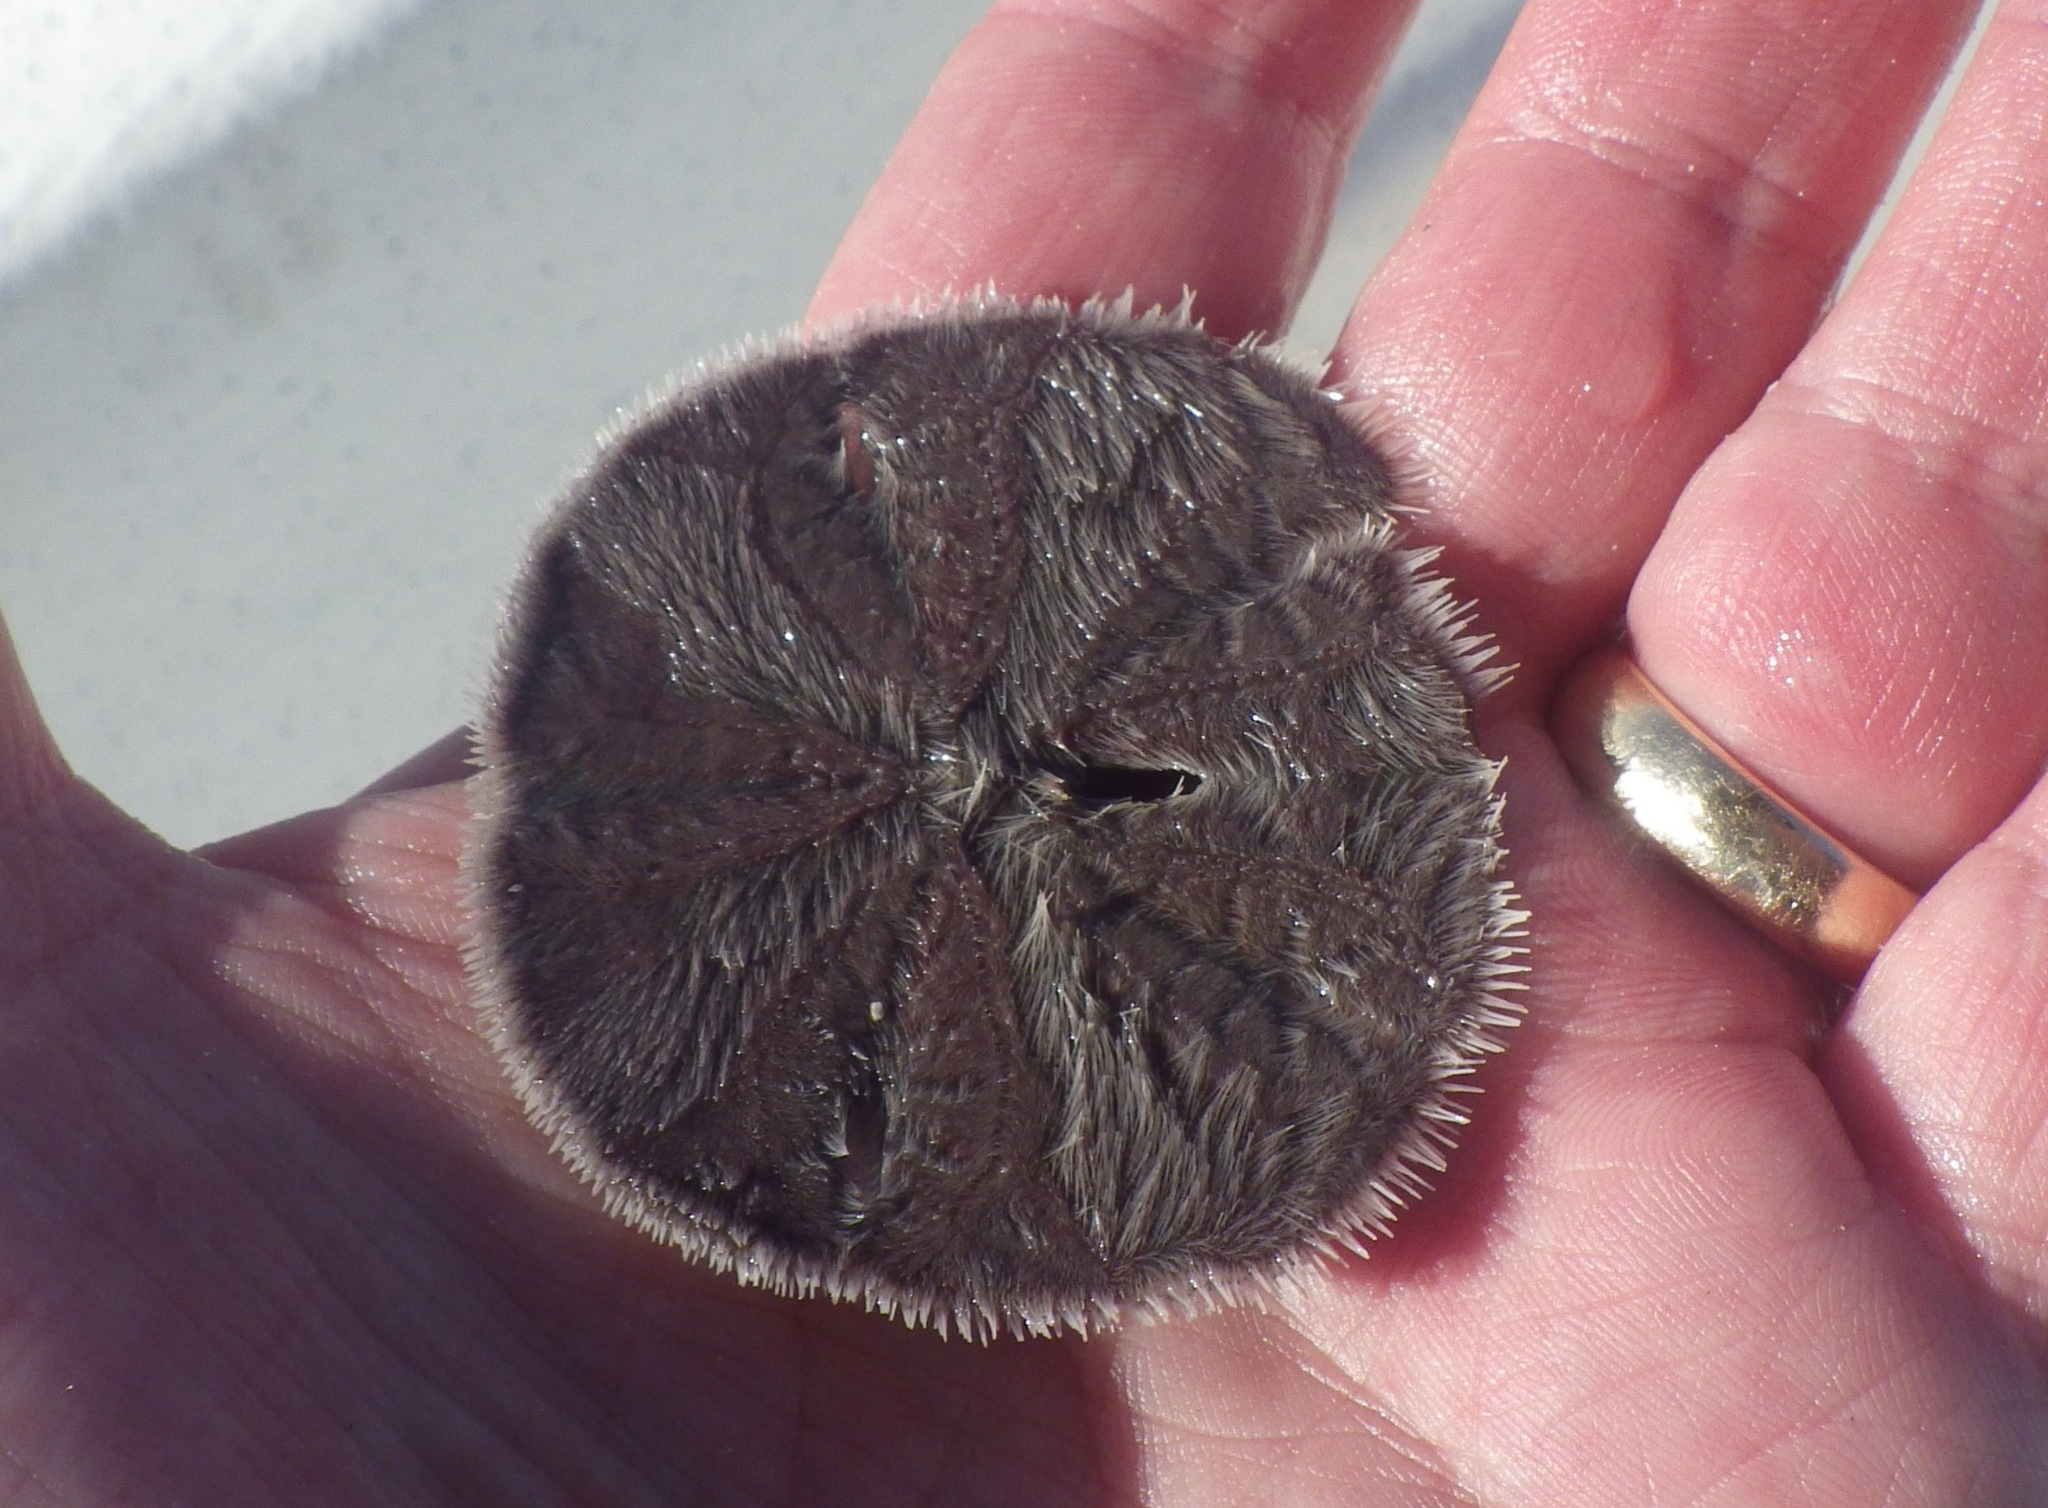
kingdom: Animalia
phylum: Echinodermata
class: Echinoidea
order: Echinolampadacea
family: Mellitidae
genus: Mellita
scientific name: Mellita quinquiesperforata
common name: Sand dollar
